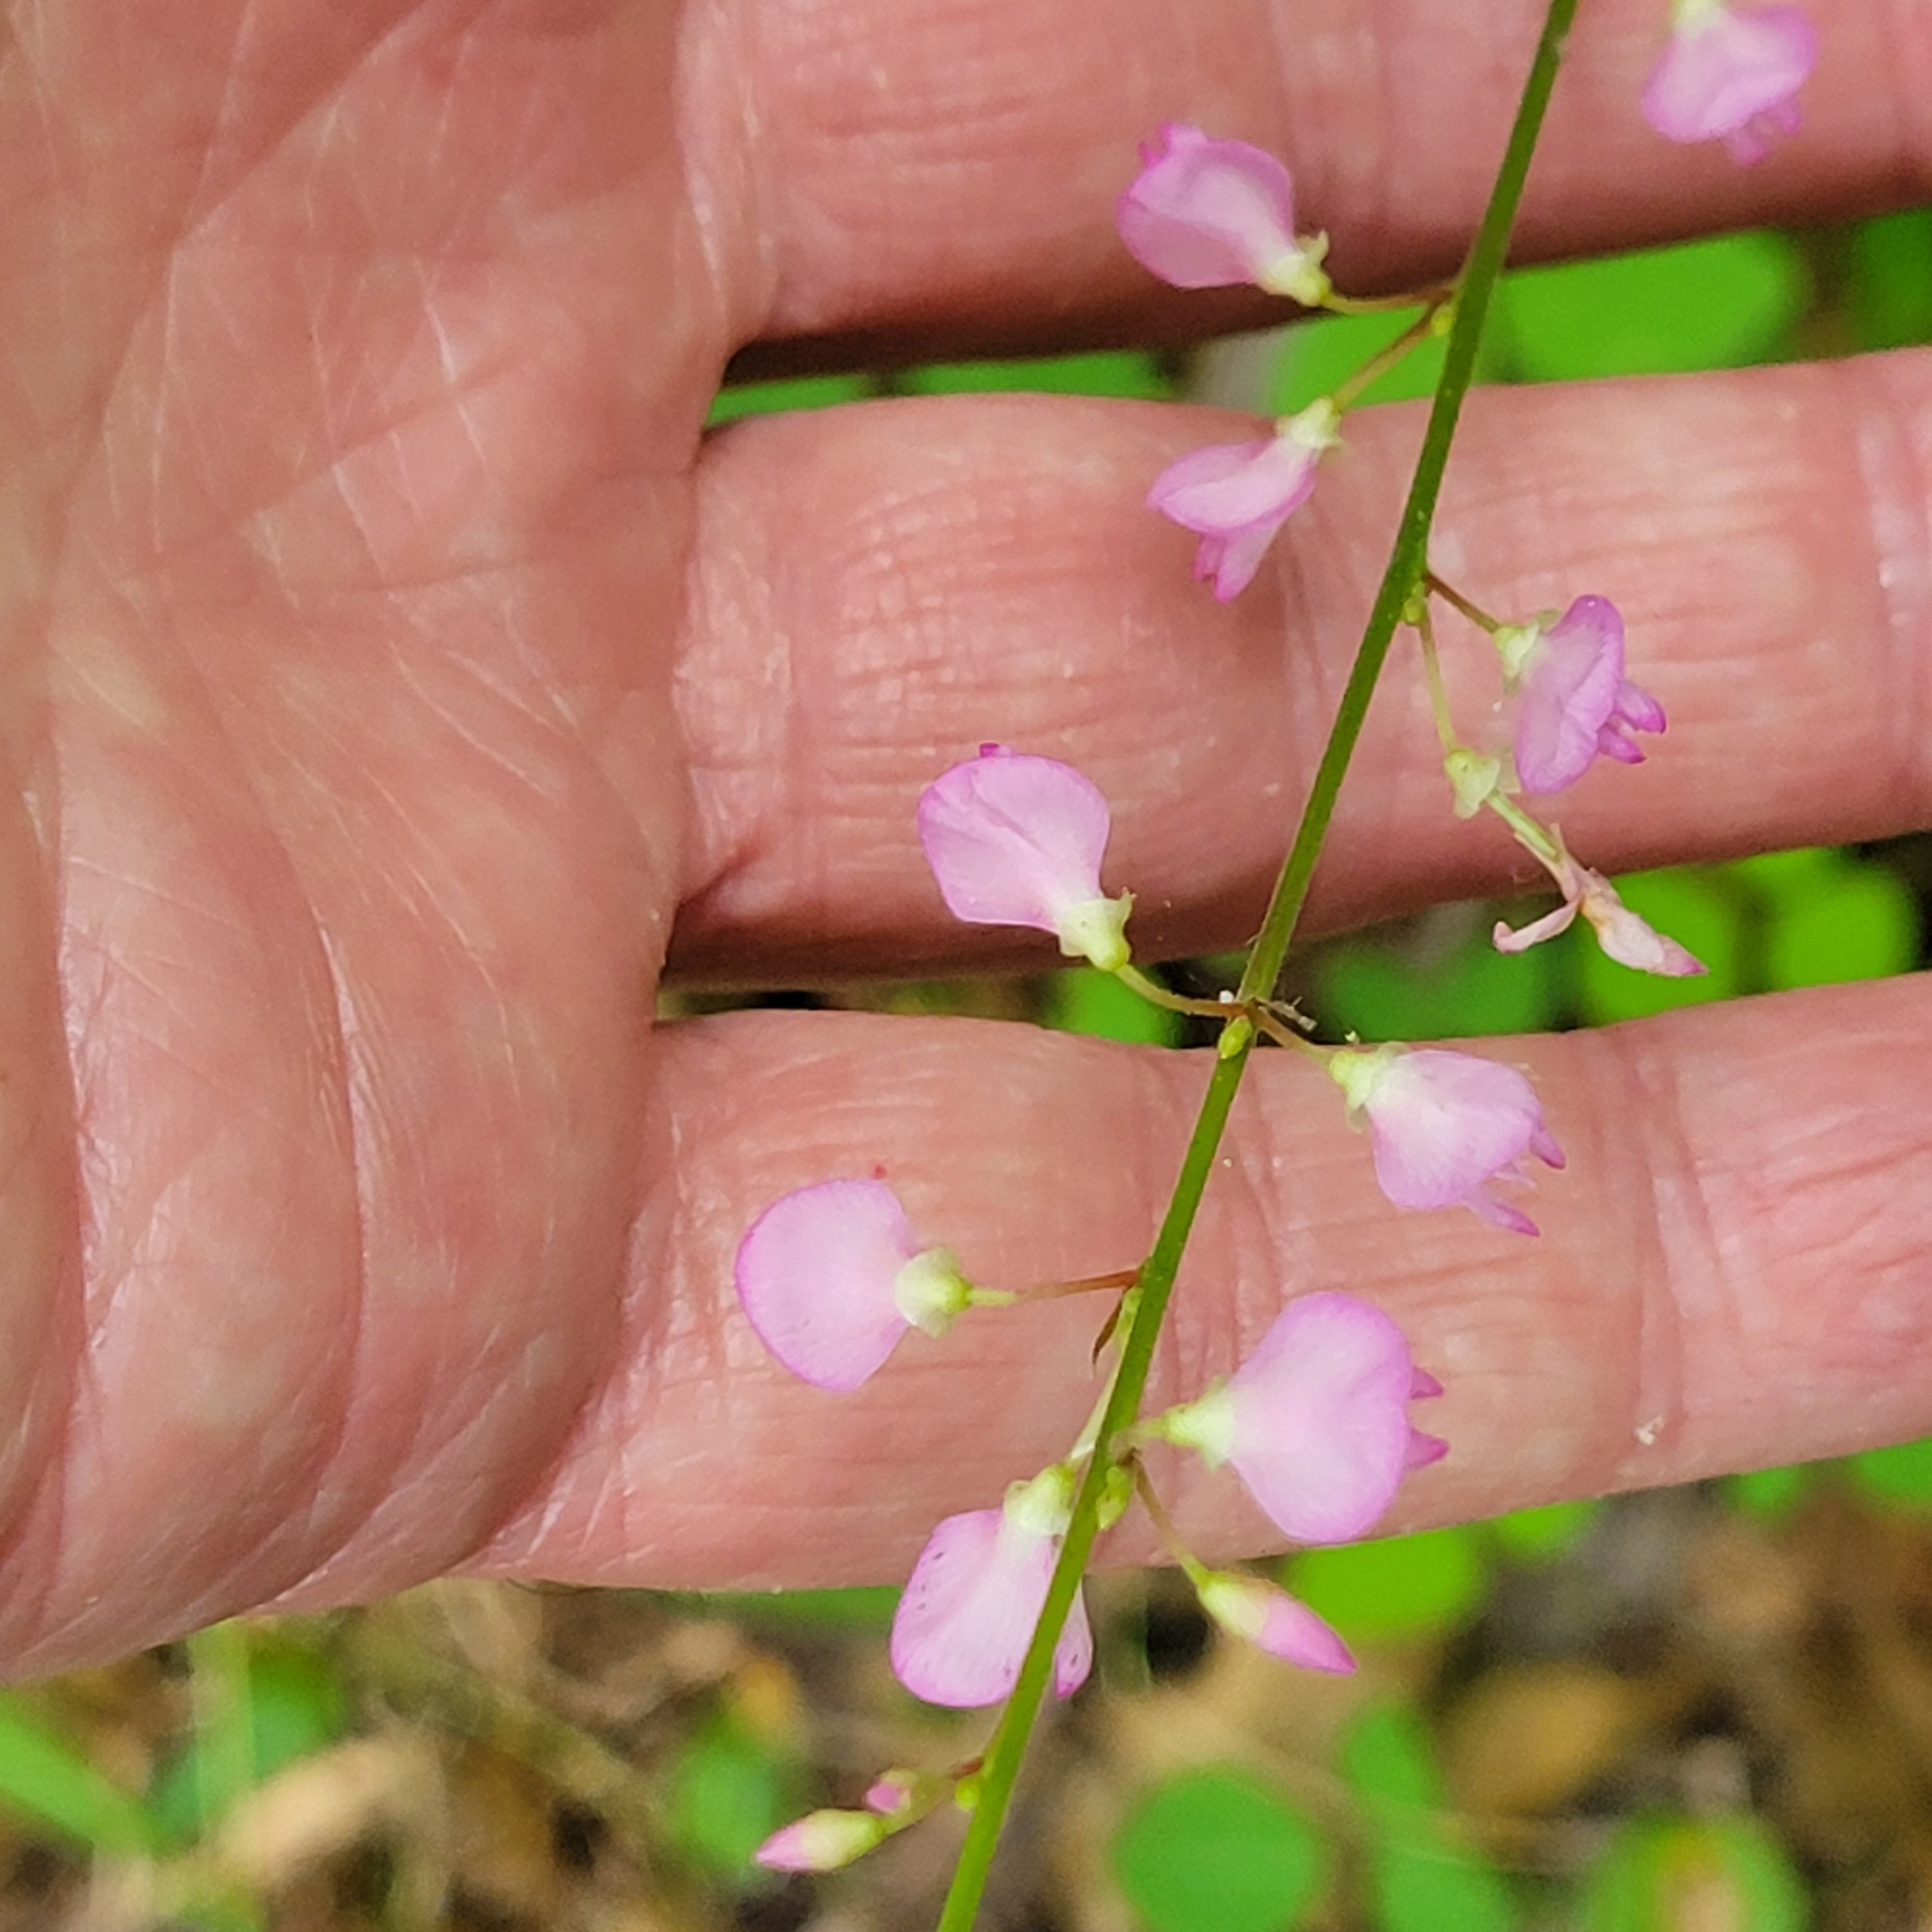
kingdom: Plantae
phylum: Tracheophyta
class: Magnoliopsida
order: Fabales
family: Fabaceae
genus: Hylodesmum
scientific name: Hylodesmum glutinosum
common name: Clustered-leaved tick-trefoil
